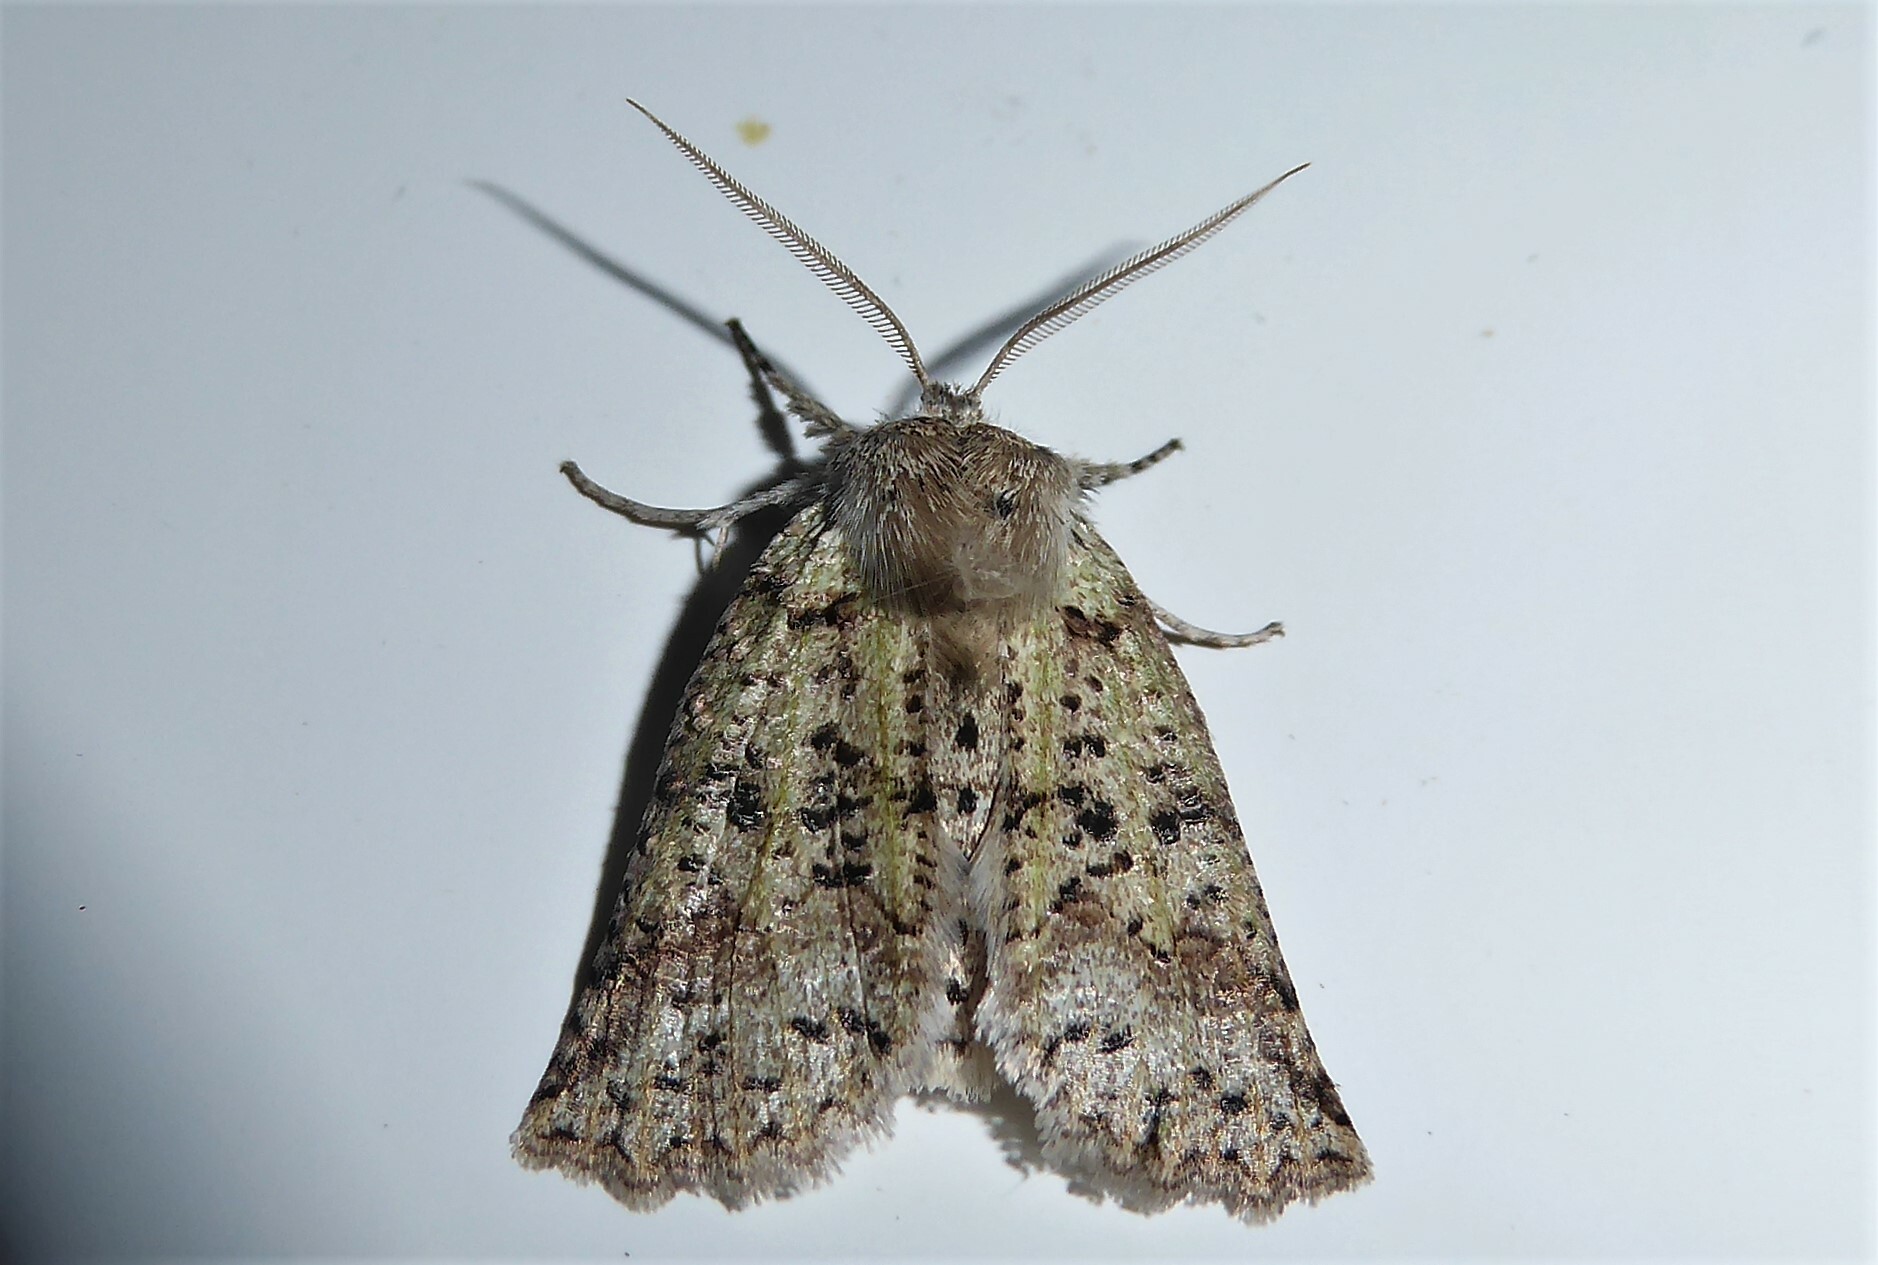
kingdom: Animalia
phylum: Arthropoda
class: Insecta
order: Lepidoptera
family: Geometridae
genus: Declana
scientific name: Declana floccosa
